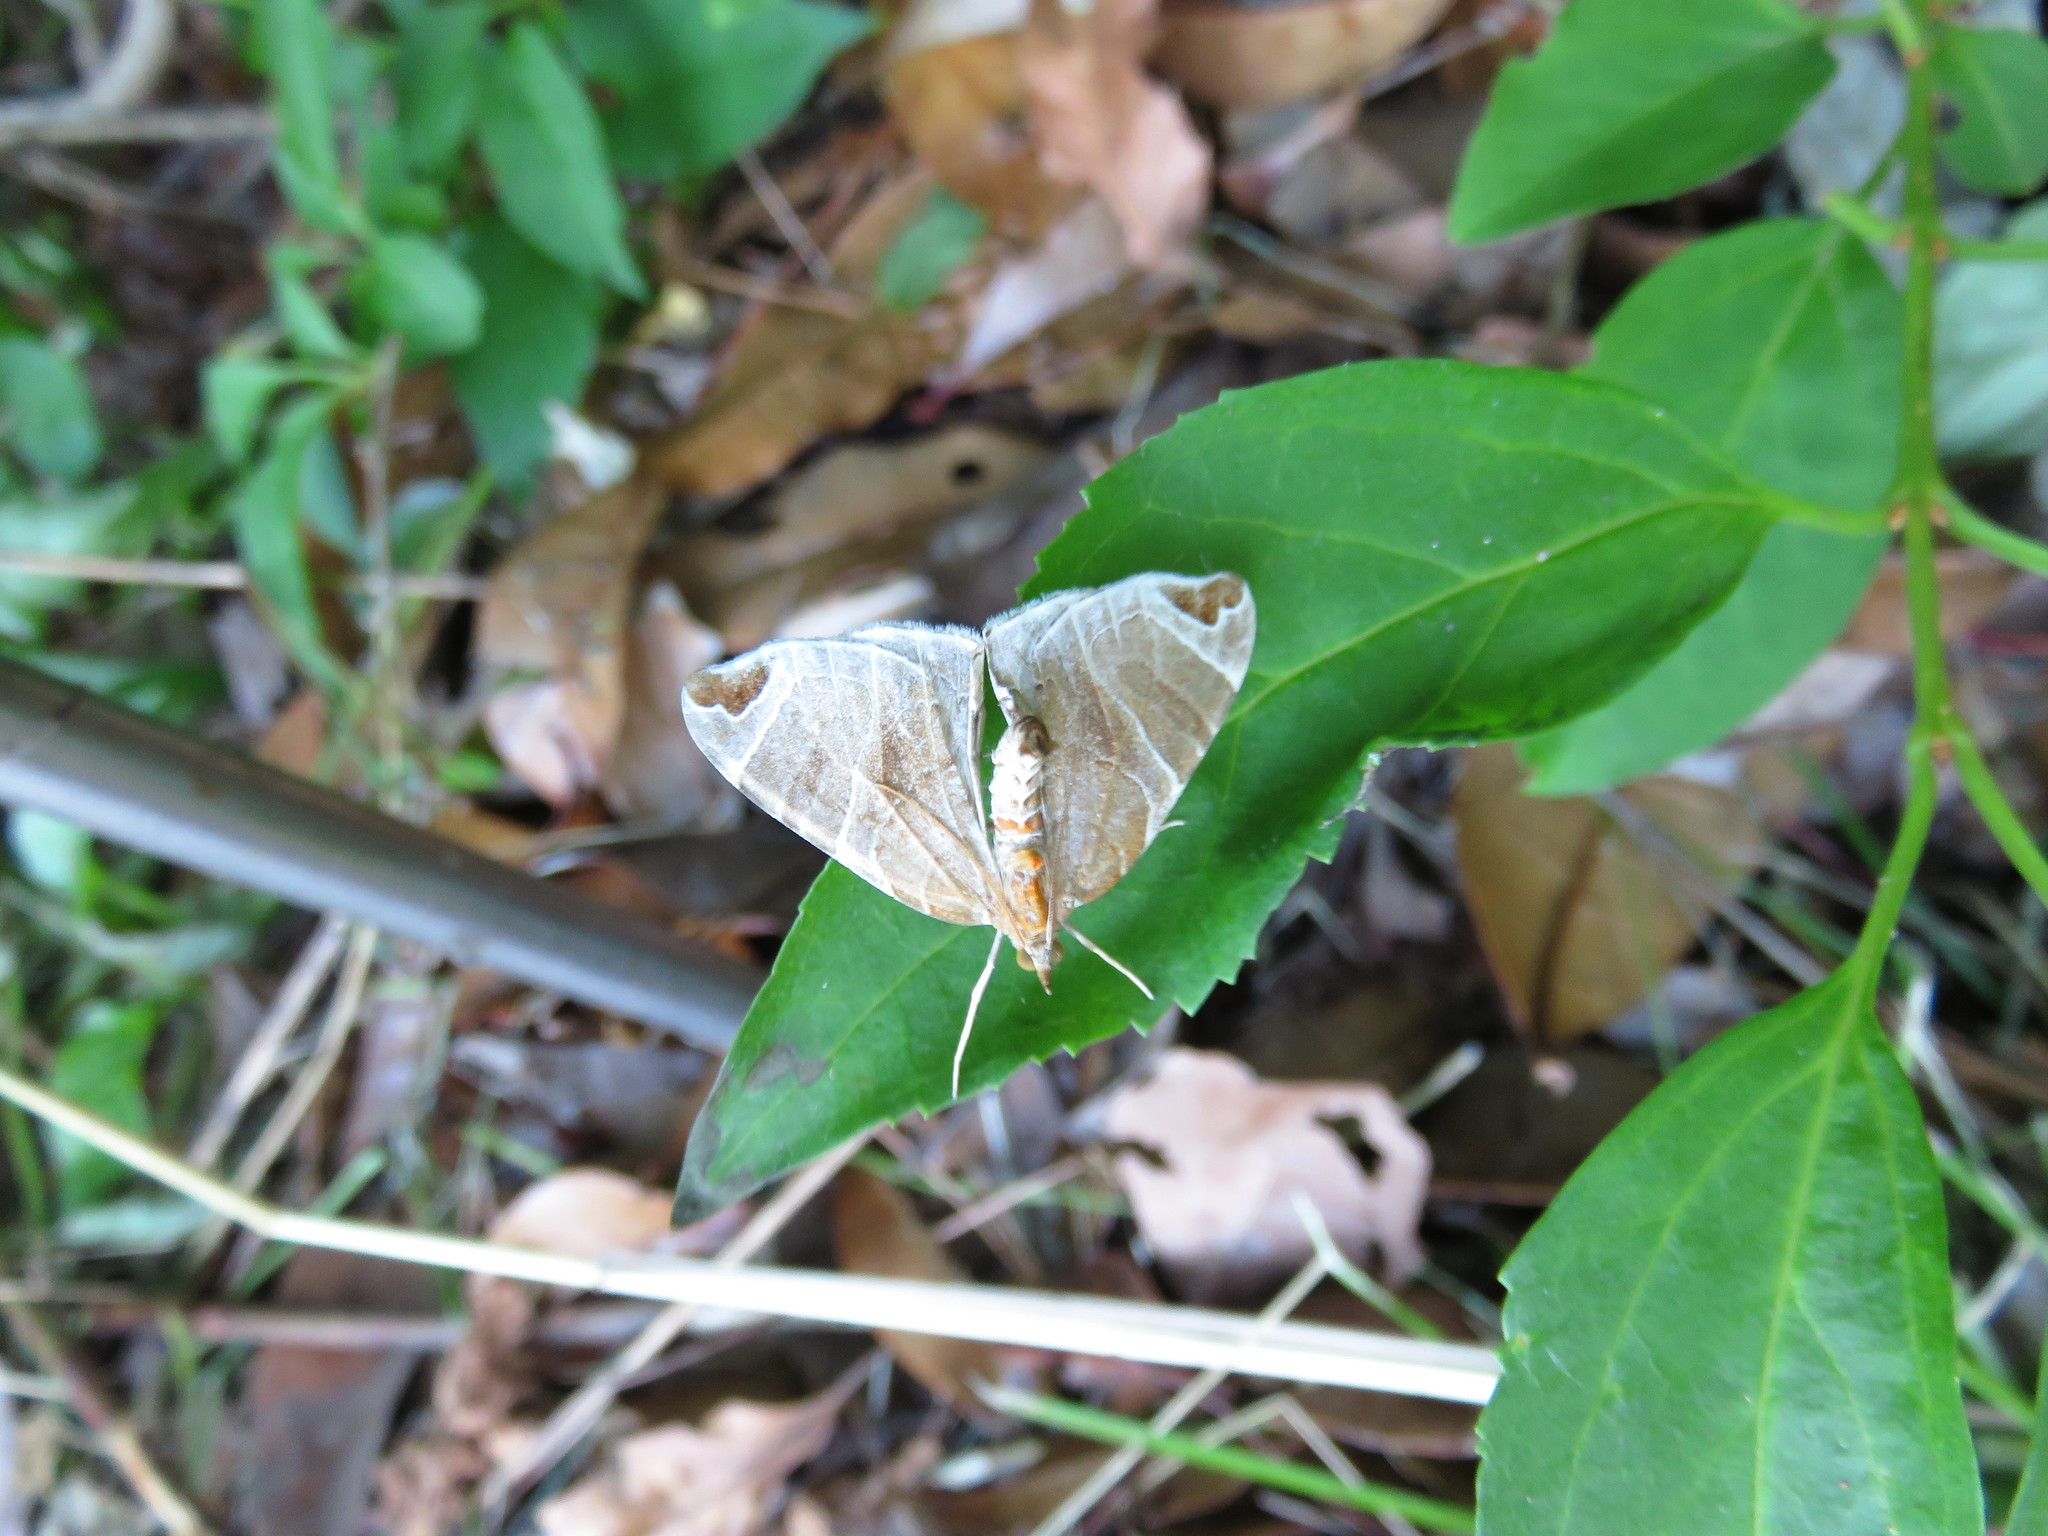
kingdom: Animalia
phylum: Arthropoda
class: Insecta
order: Lepidoptera
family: Geometridae
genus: Eulithis
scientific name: Eulithis ledereri
